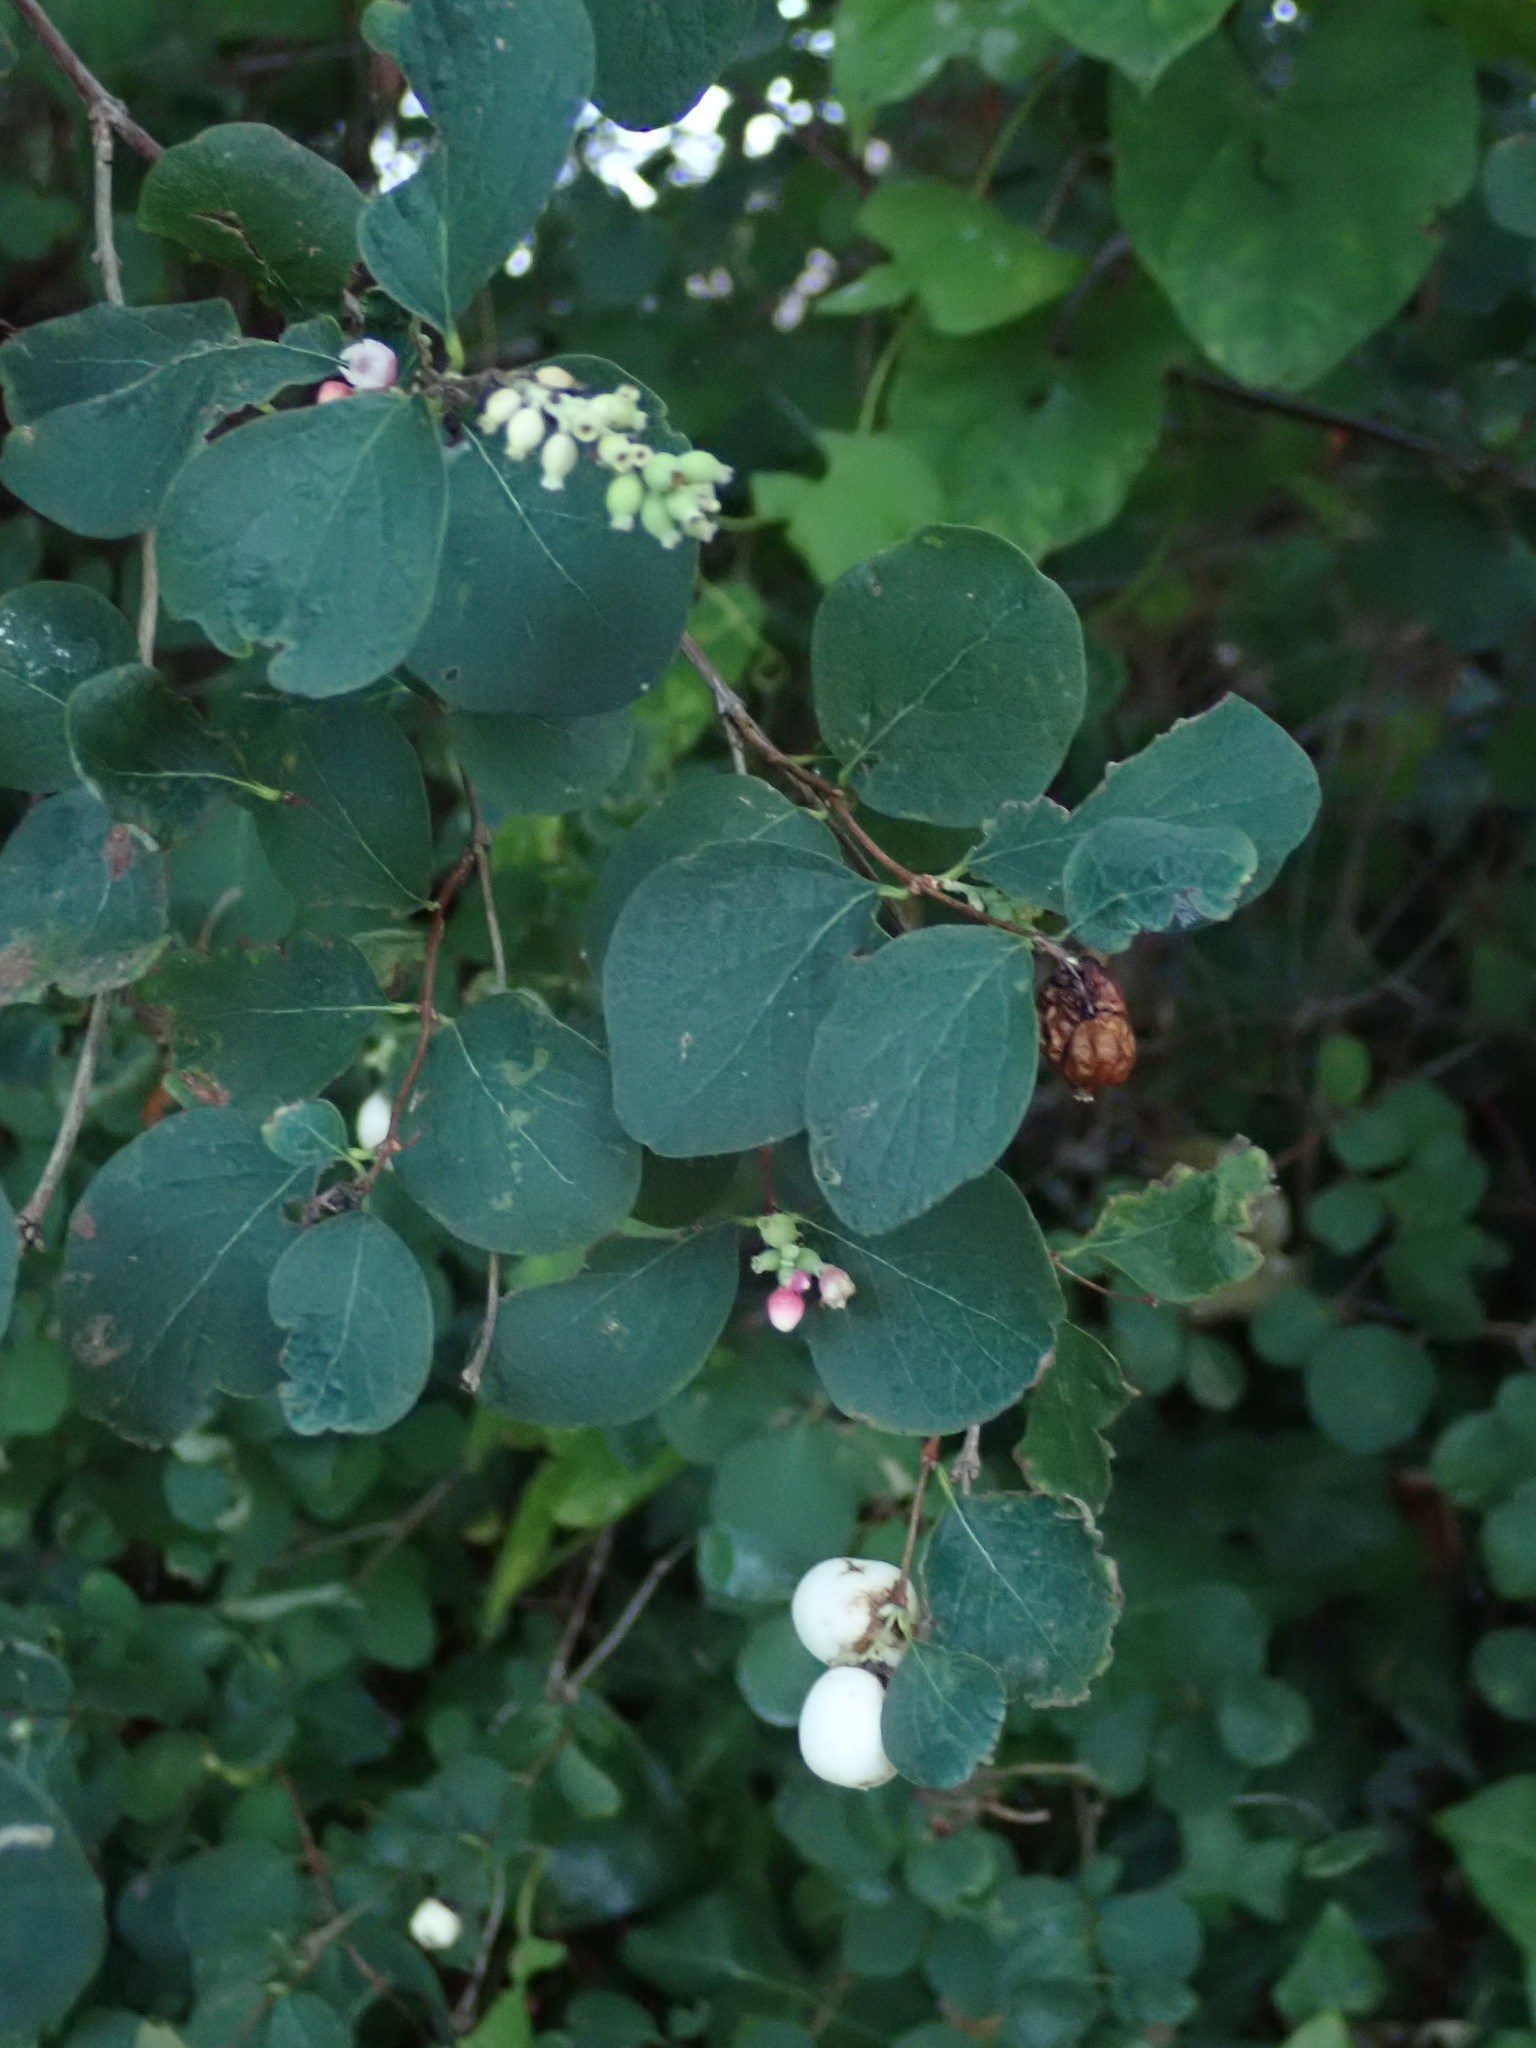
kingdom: Plantae
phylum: Tracheophyta
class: Magnoliopsida
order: Dipsacales
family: Caprifoliaceae
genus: Symphoricarpos
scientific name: Symphoricarpos albus
